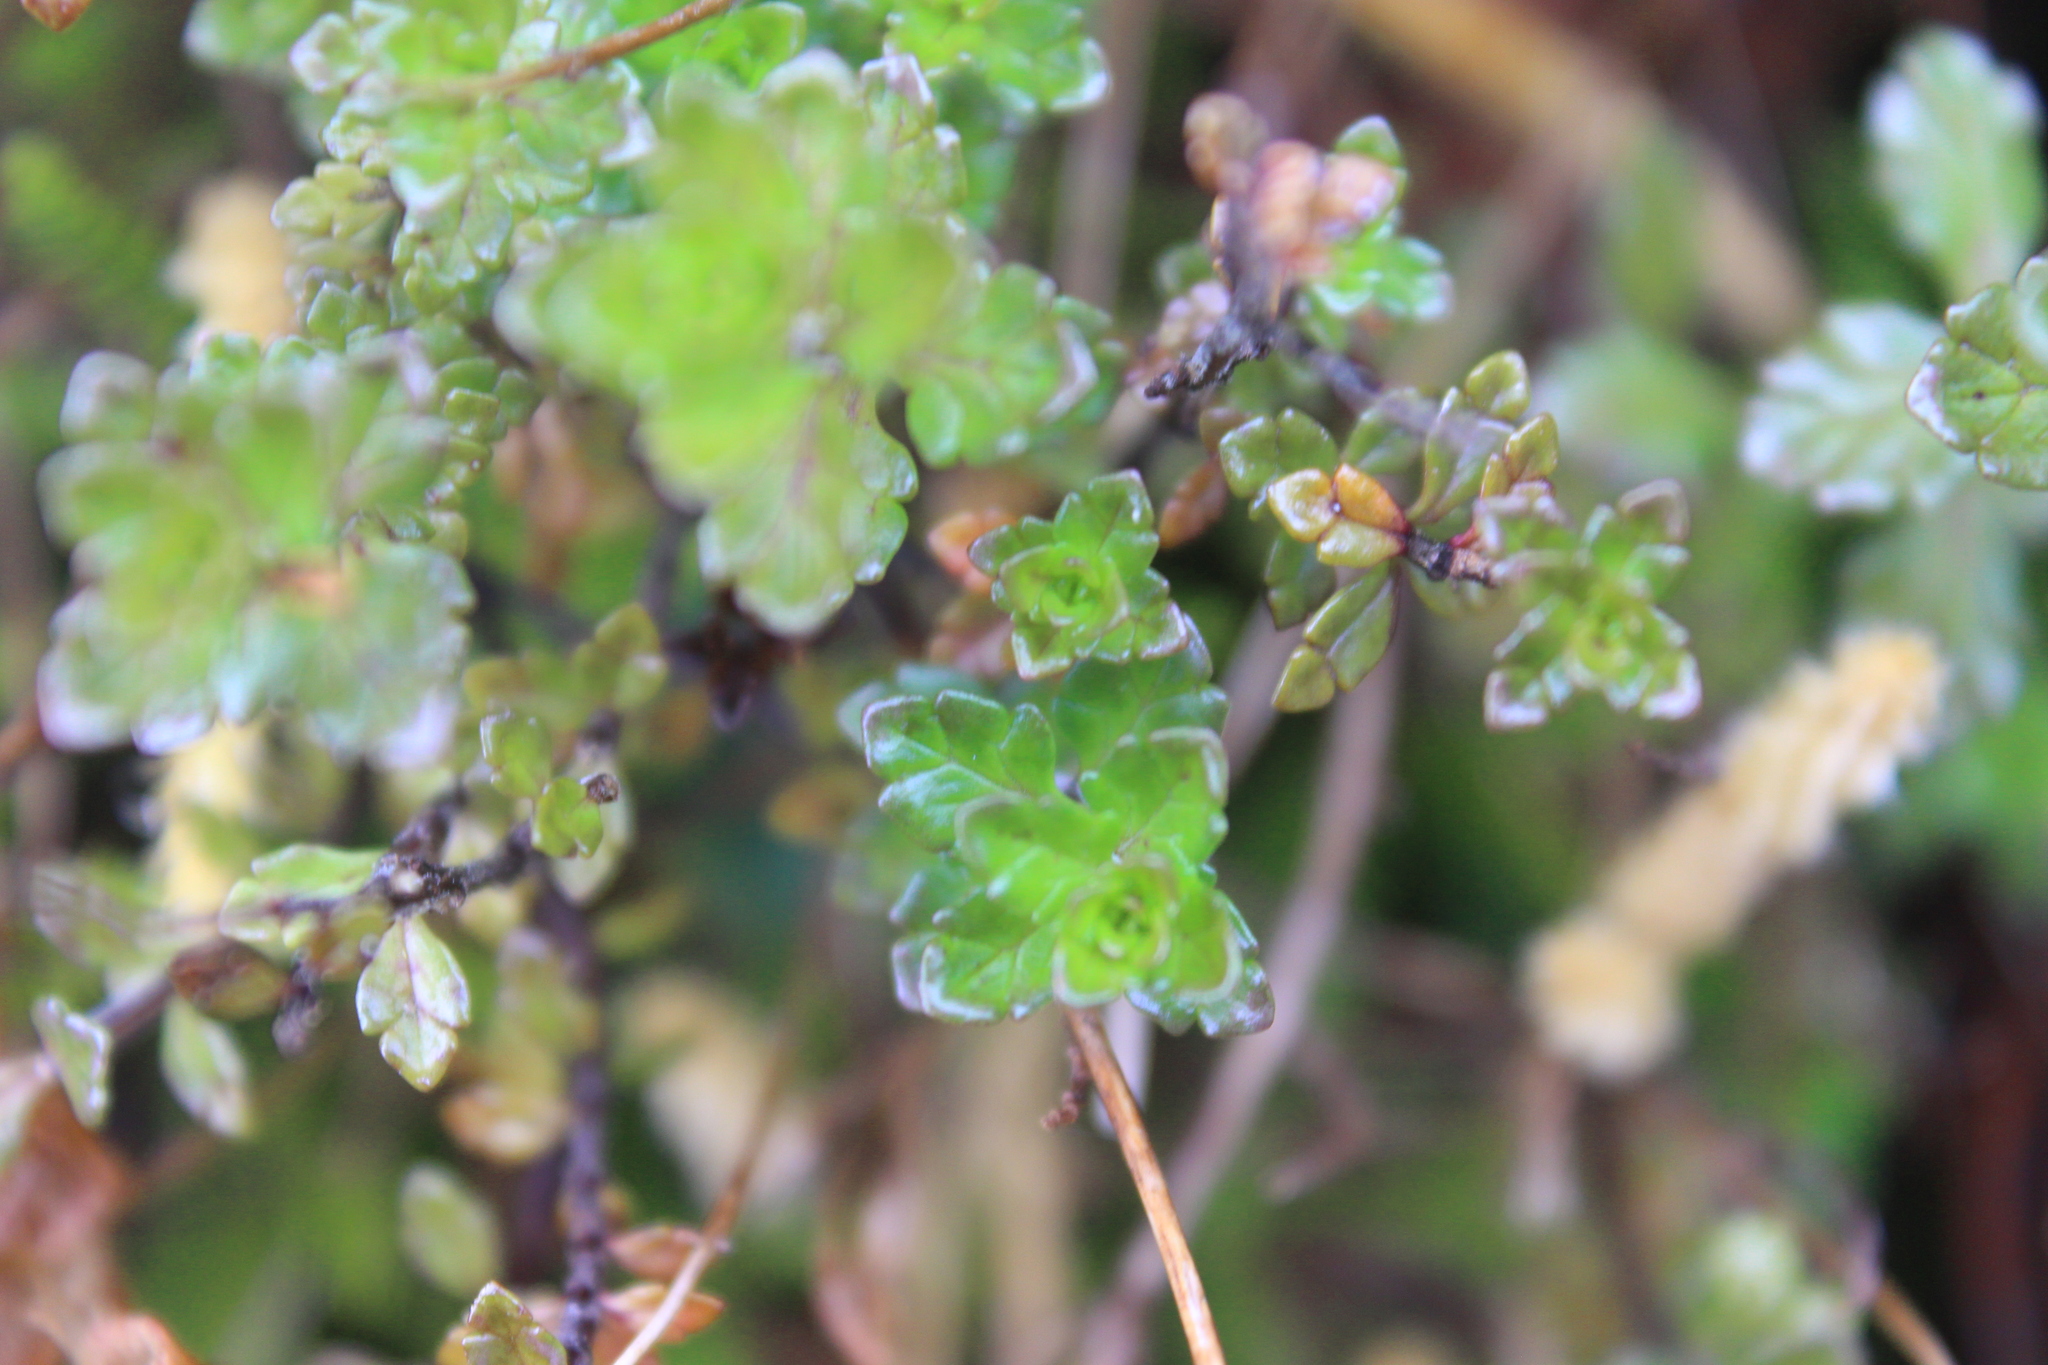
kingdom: Plantae
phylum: Tracheophyta
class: Magnoliopsida
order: Lamiales
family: Orobanchaceae
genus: Euphrasia
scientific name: Euphrasia cuneata
